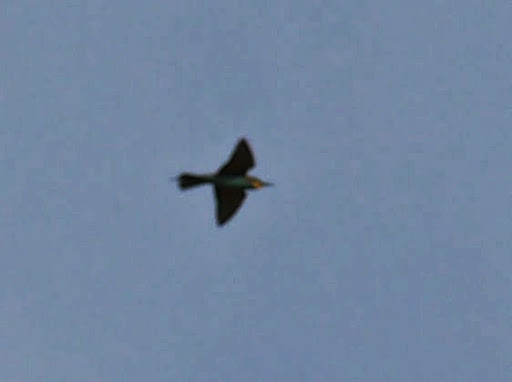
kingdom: Animalia
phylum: Chordata
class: Aves
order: Coraciiformes
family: Meropidae
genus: Merops
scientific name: Merops apiaster
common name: European bee-eater
